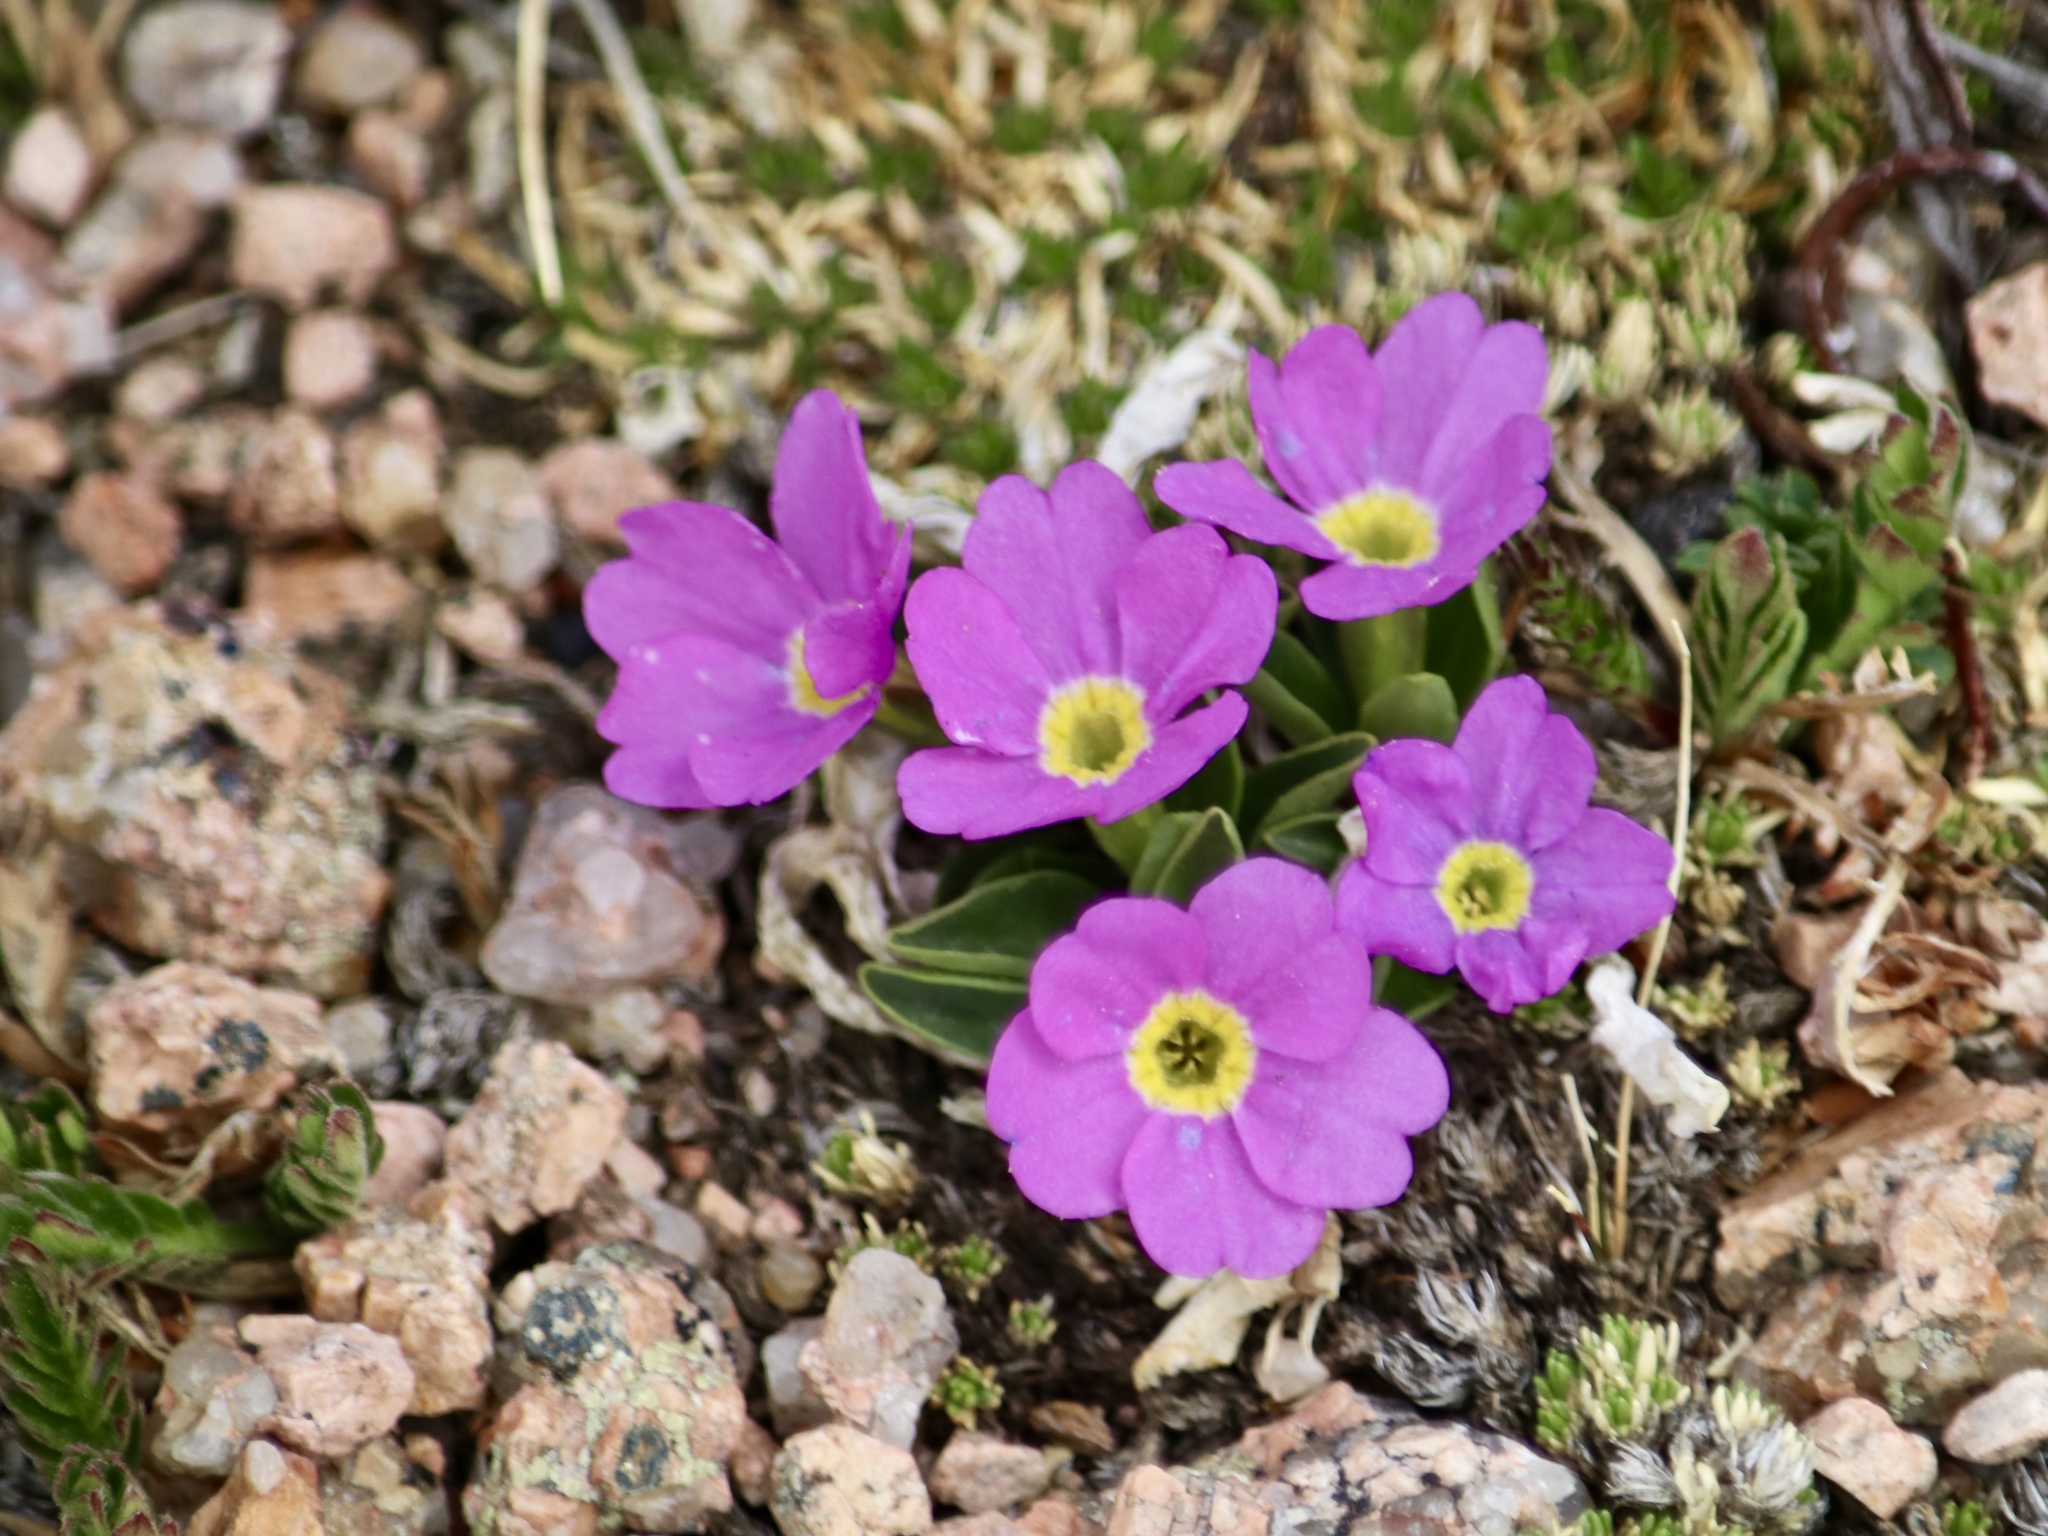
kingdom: Plantae
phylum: Tracheophyta
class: Magnoliopsida
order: Ericales
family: Primulaceae
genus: Primula
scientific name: Primula angustifolia
